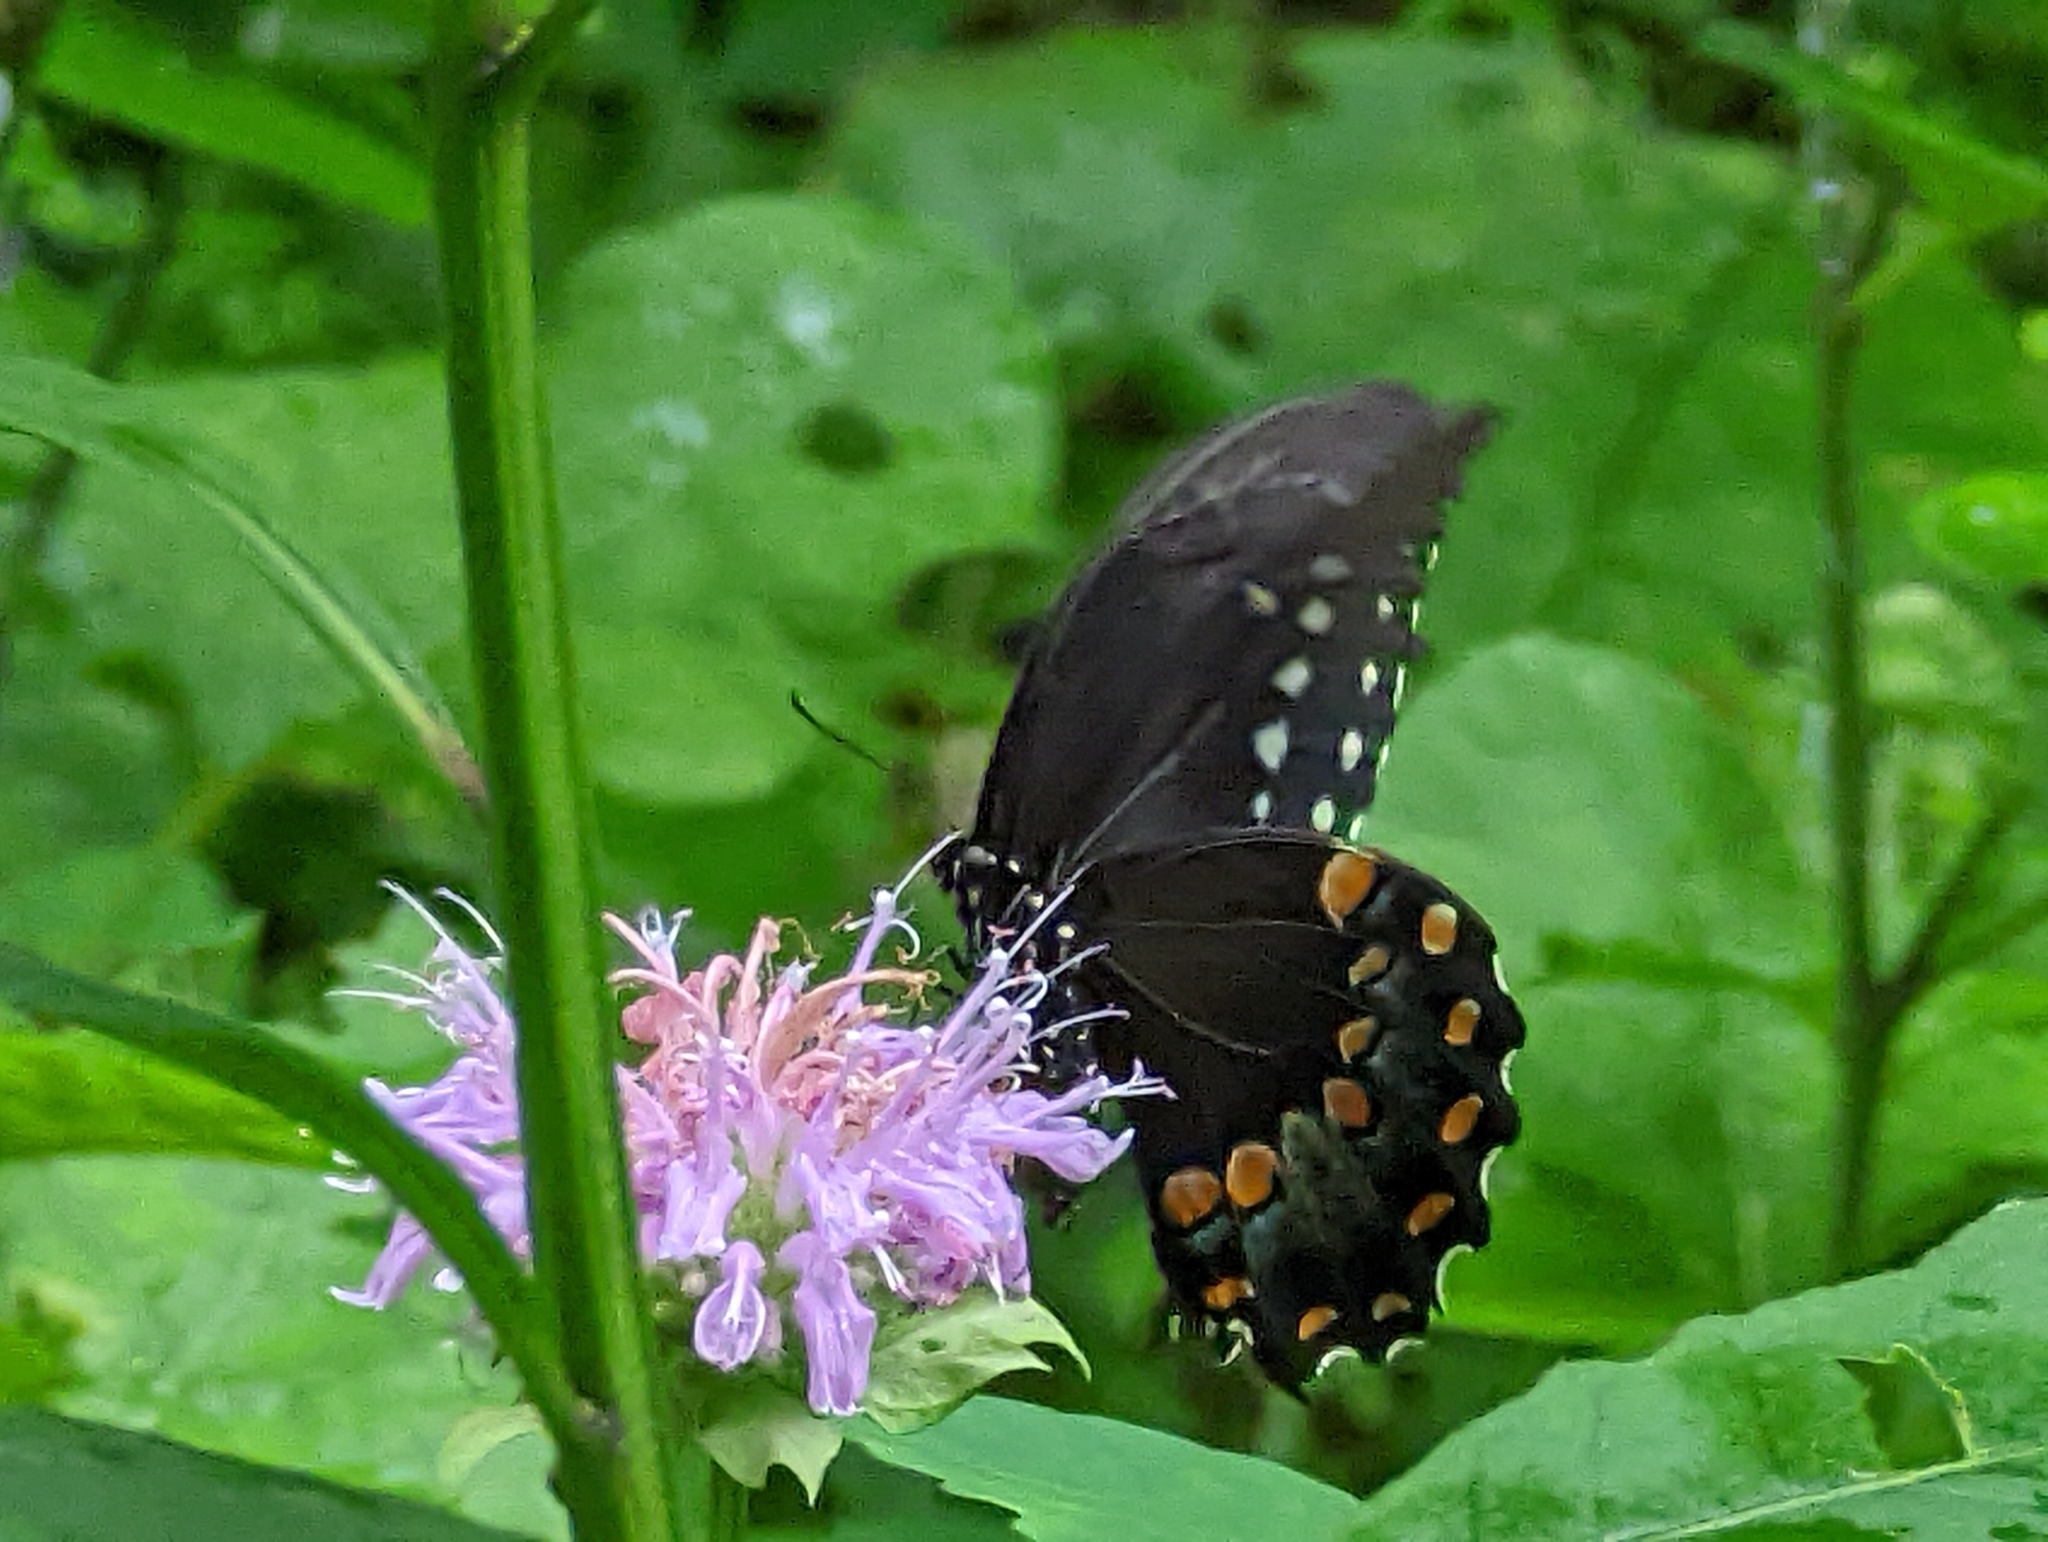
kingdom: Animalia
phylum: Arthropoda
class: Insecta
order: Lepidoptera
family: Papilionidae
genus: Papilio
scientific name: Papilio troilus
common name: Spicebush swallowtail
